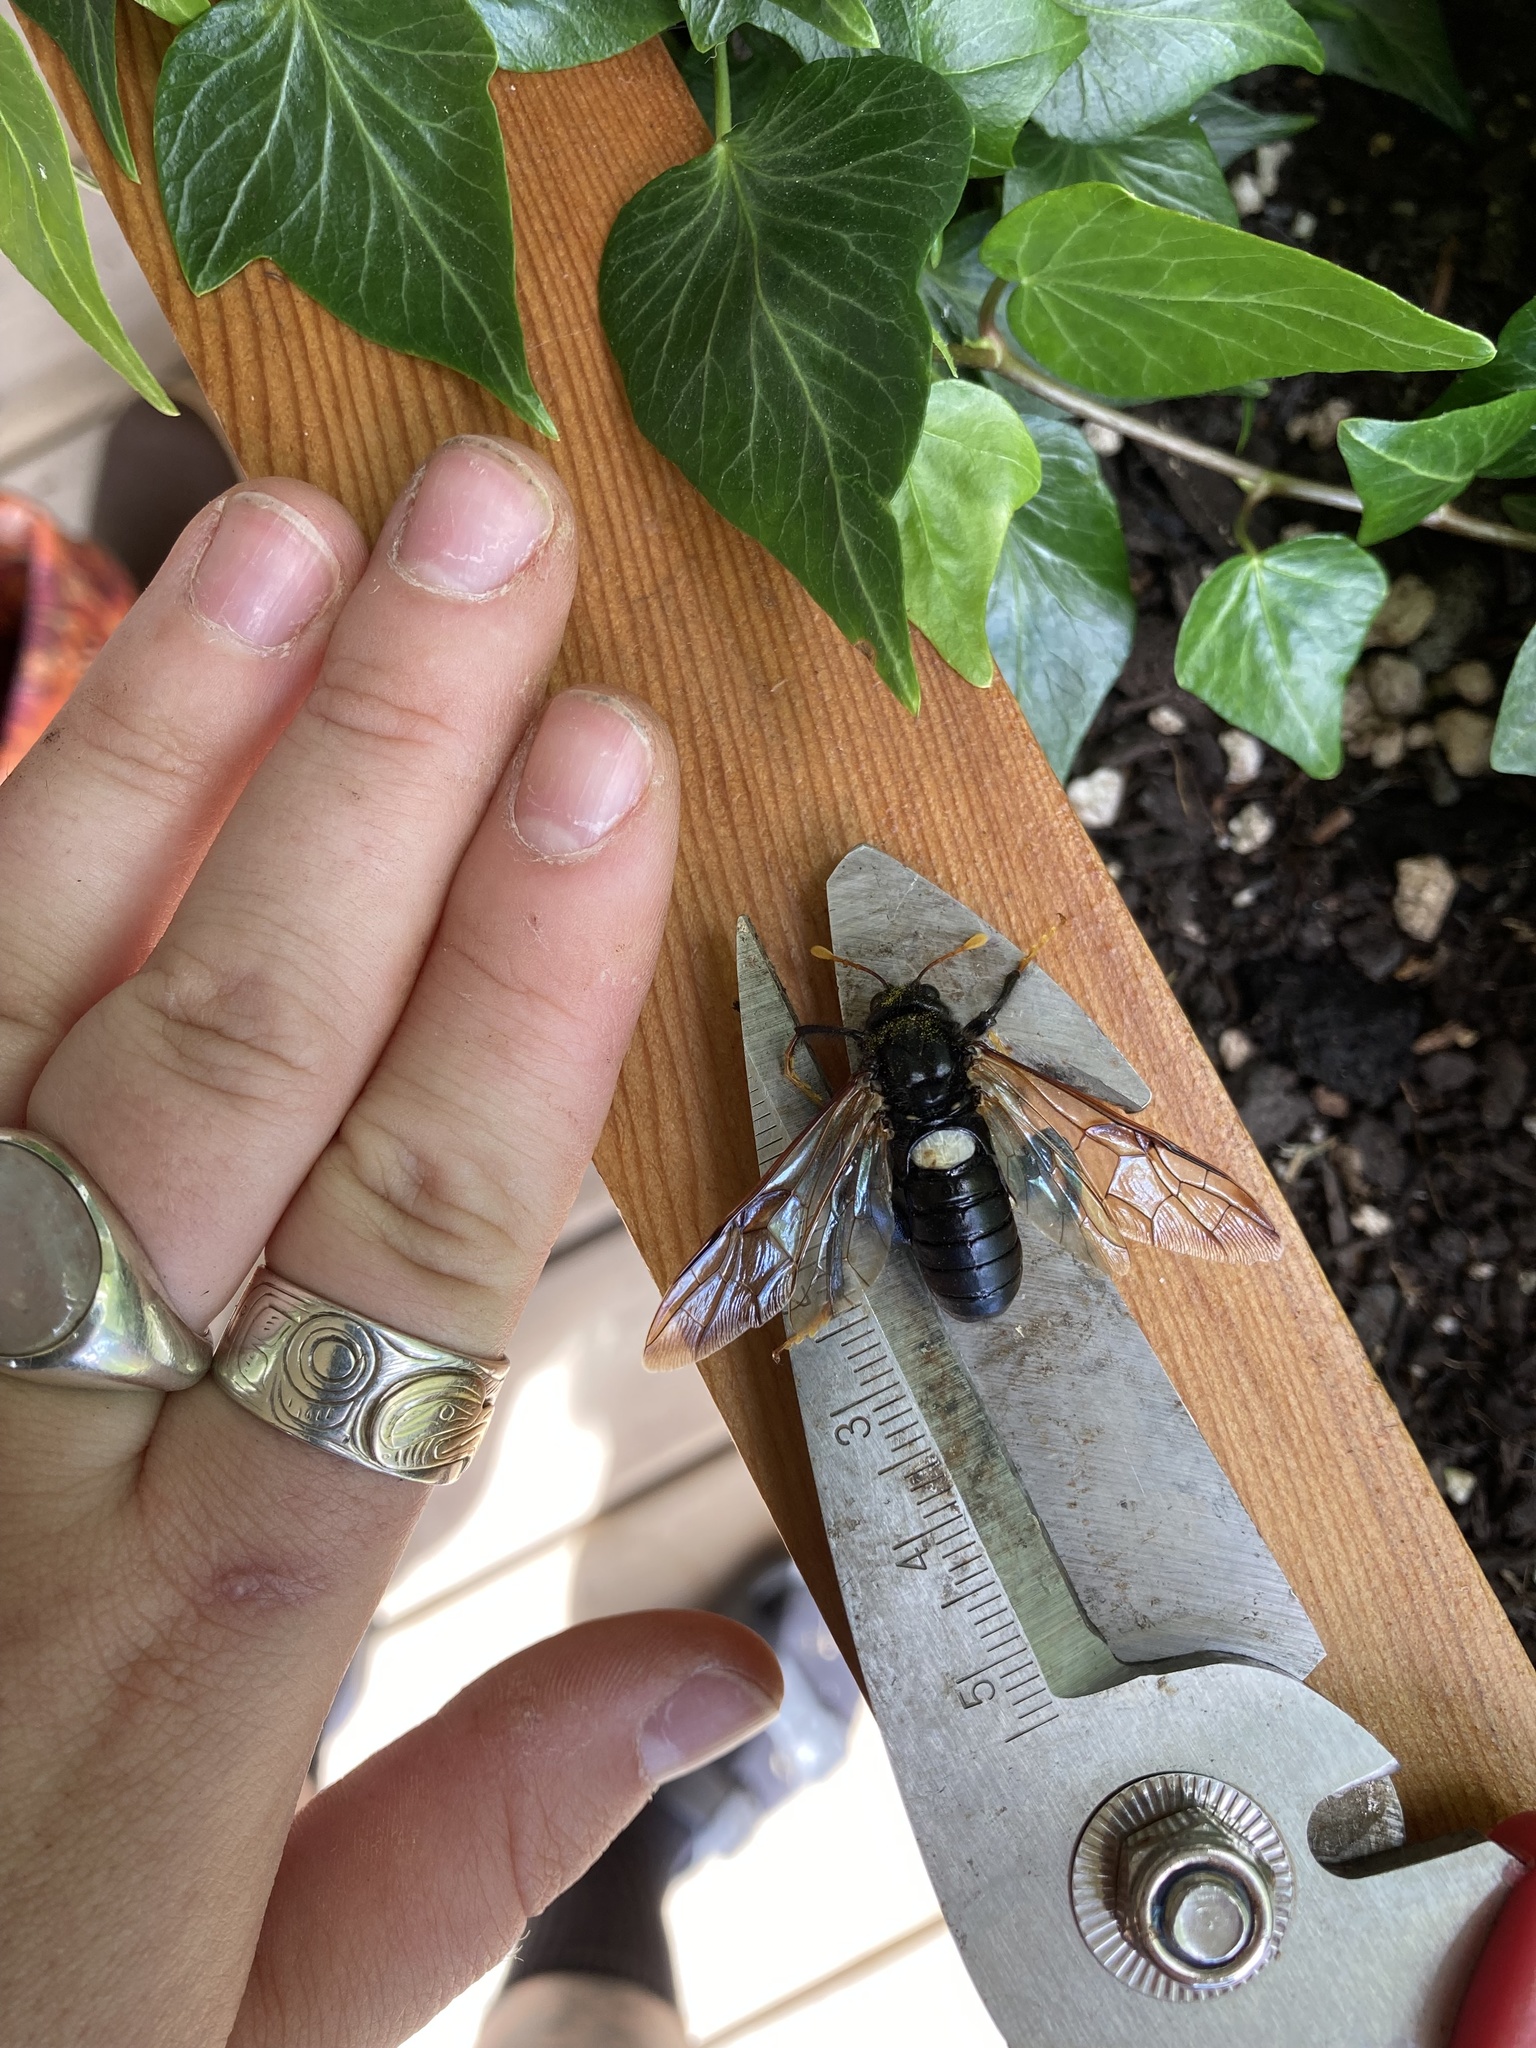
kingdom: Animalia
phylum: Arthropoda
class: Insecta
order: Hymenoptera
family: Cimbicidae
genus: Cimbex
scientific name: Cimbex americana
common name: Elm sawfly
